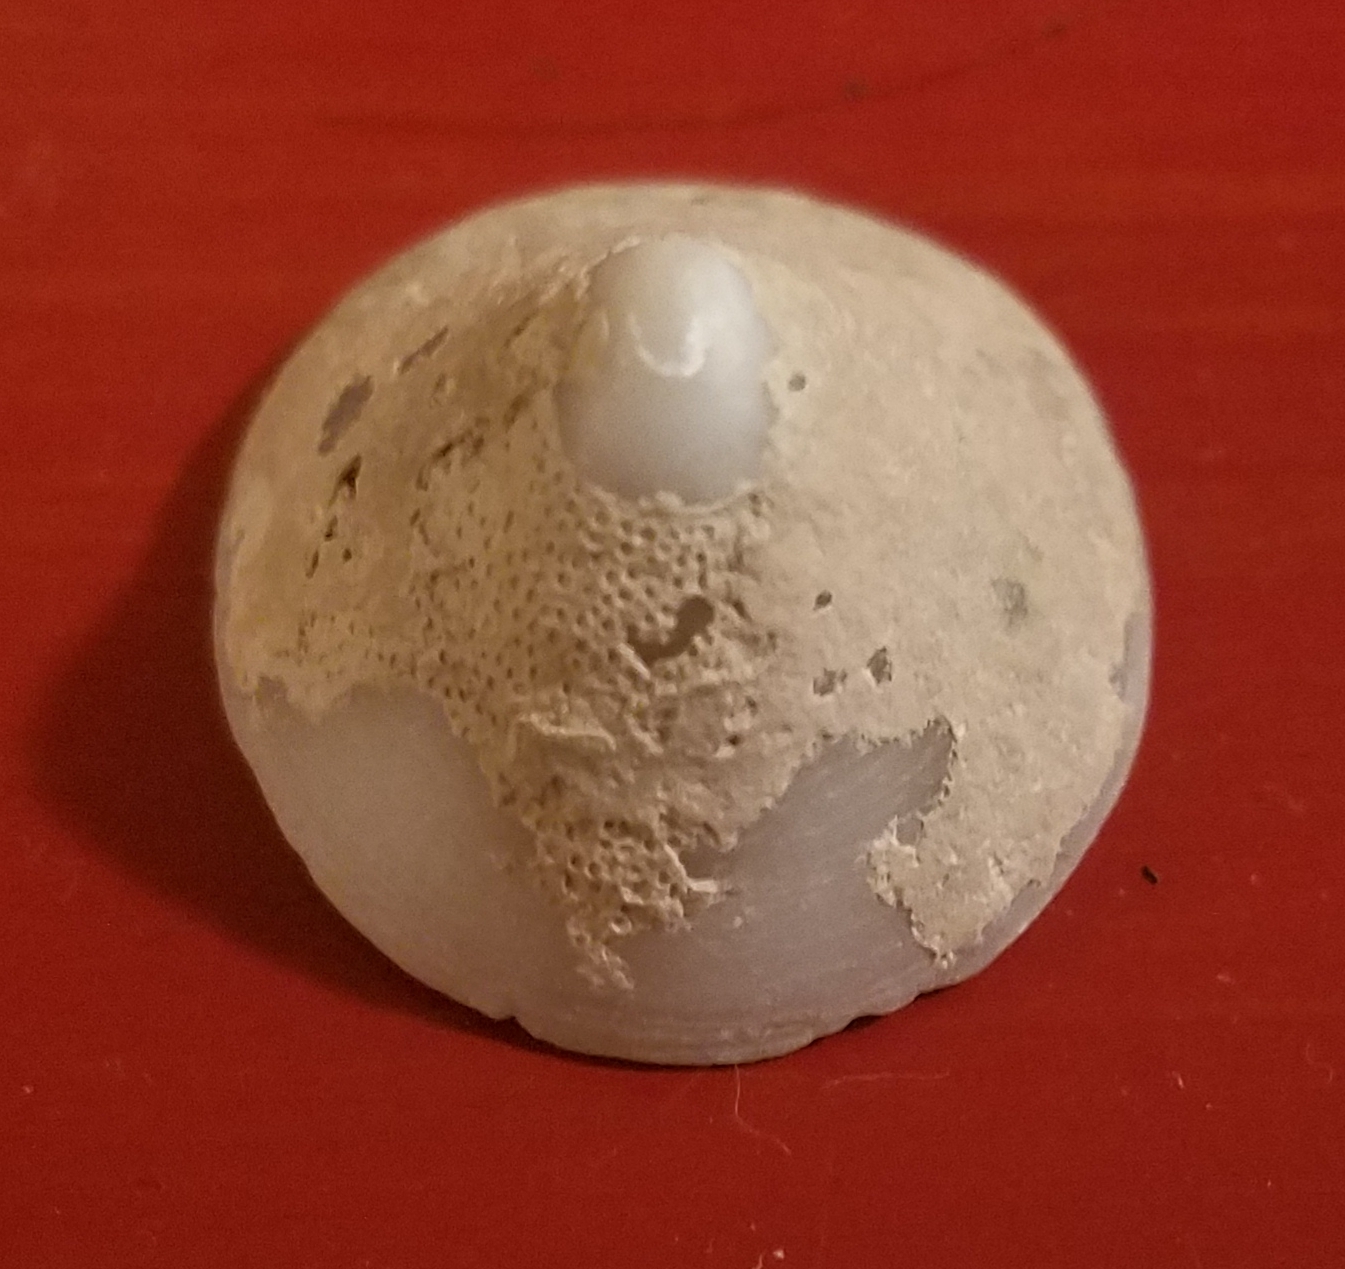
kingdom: Animalia
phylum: Mollusca
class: Gastropoda
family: Acmaeidae
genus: Acmaea
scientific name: Acmaea mitra
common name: Pacific white cap limpet
